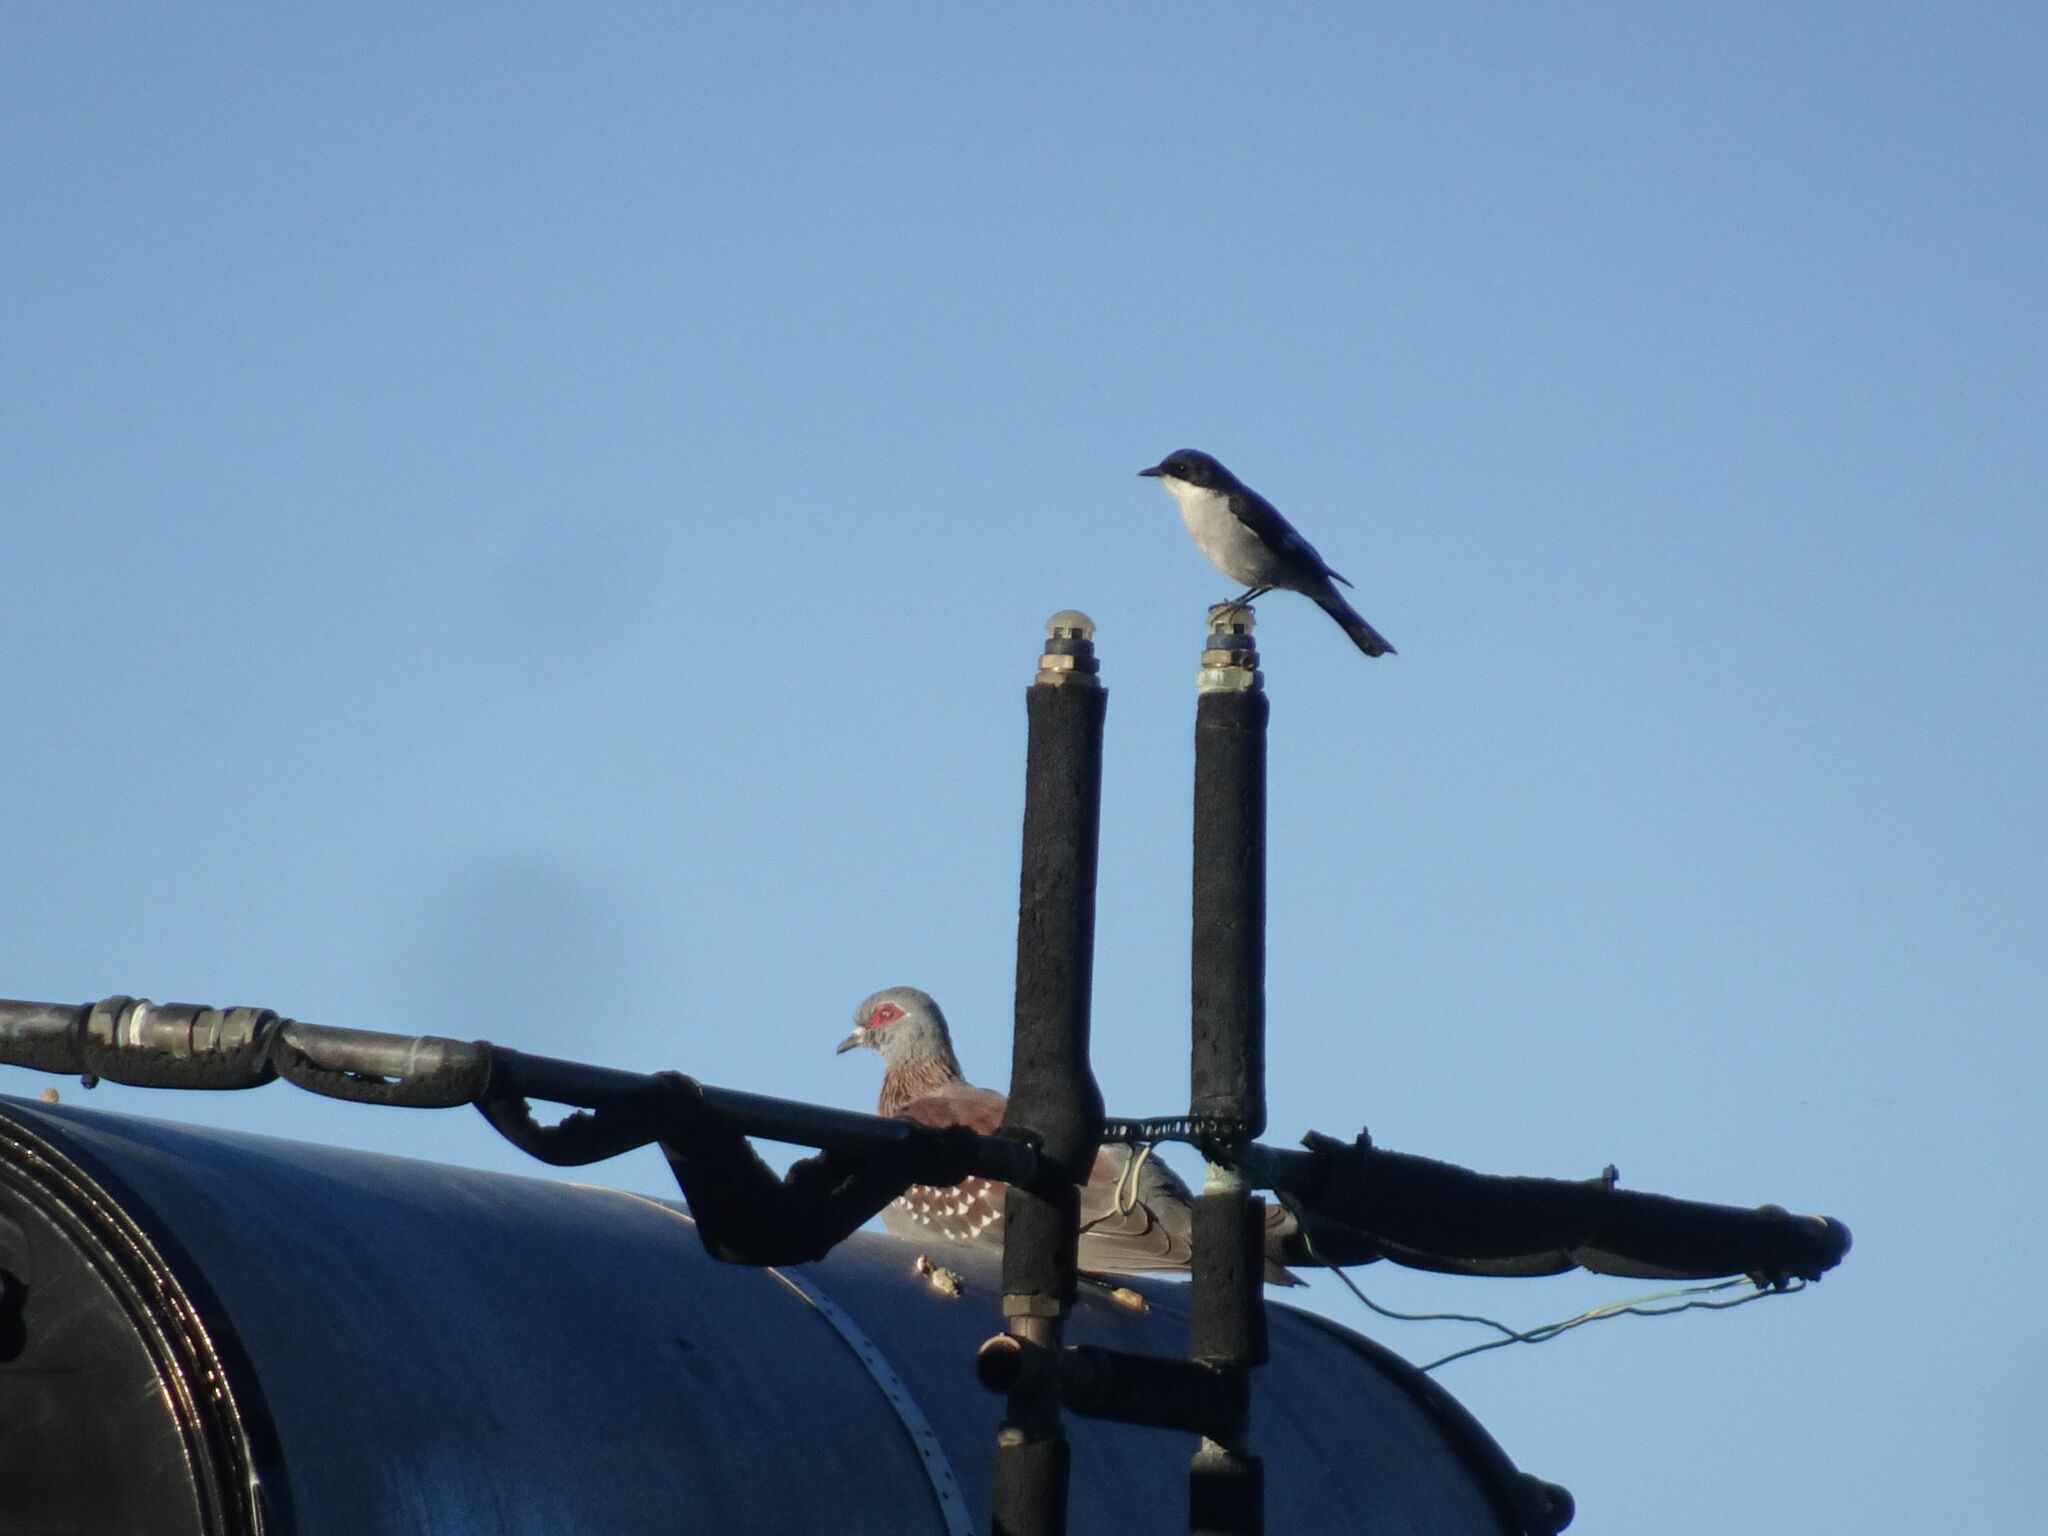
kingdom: Animalia
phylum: Chordata
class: Aves
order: Passeriformes
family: Muscicapidae
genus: Sigelus
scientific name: Sigelus silens
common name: Fiscal flycatcher
